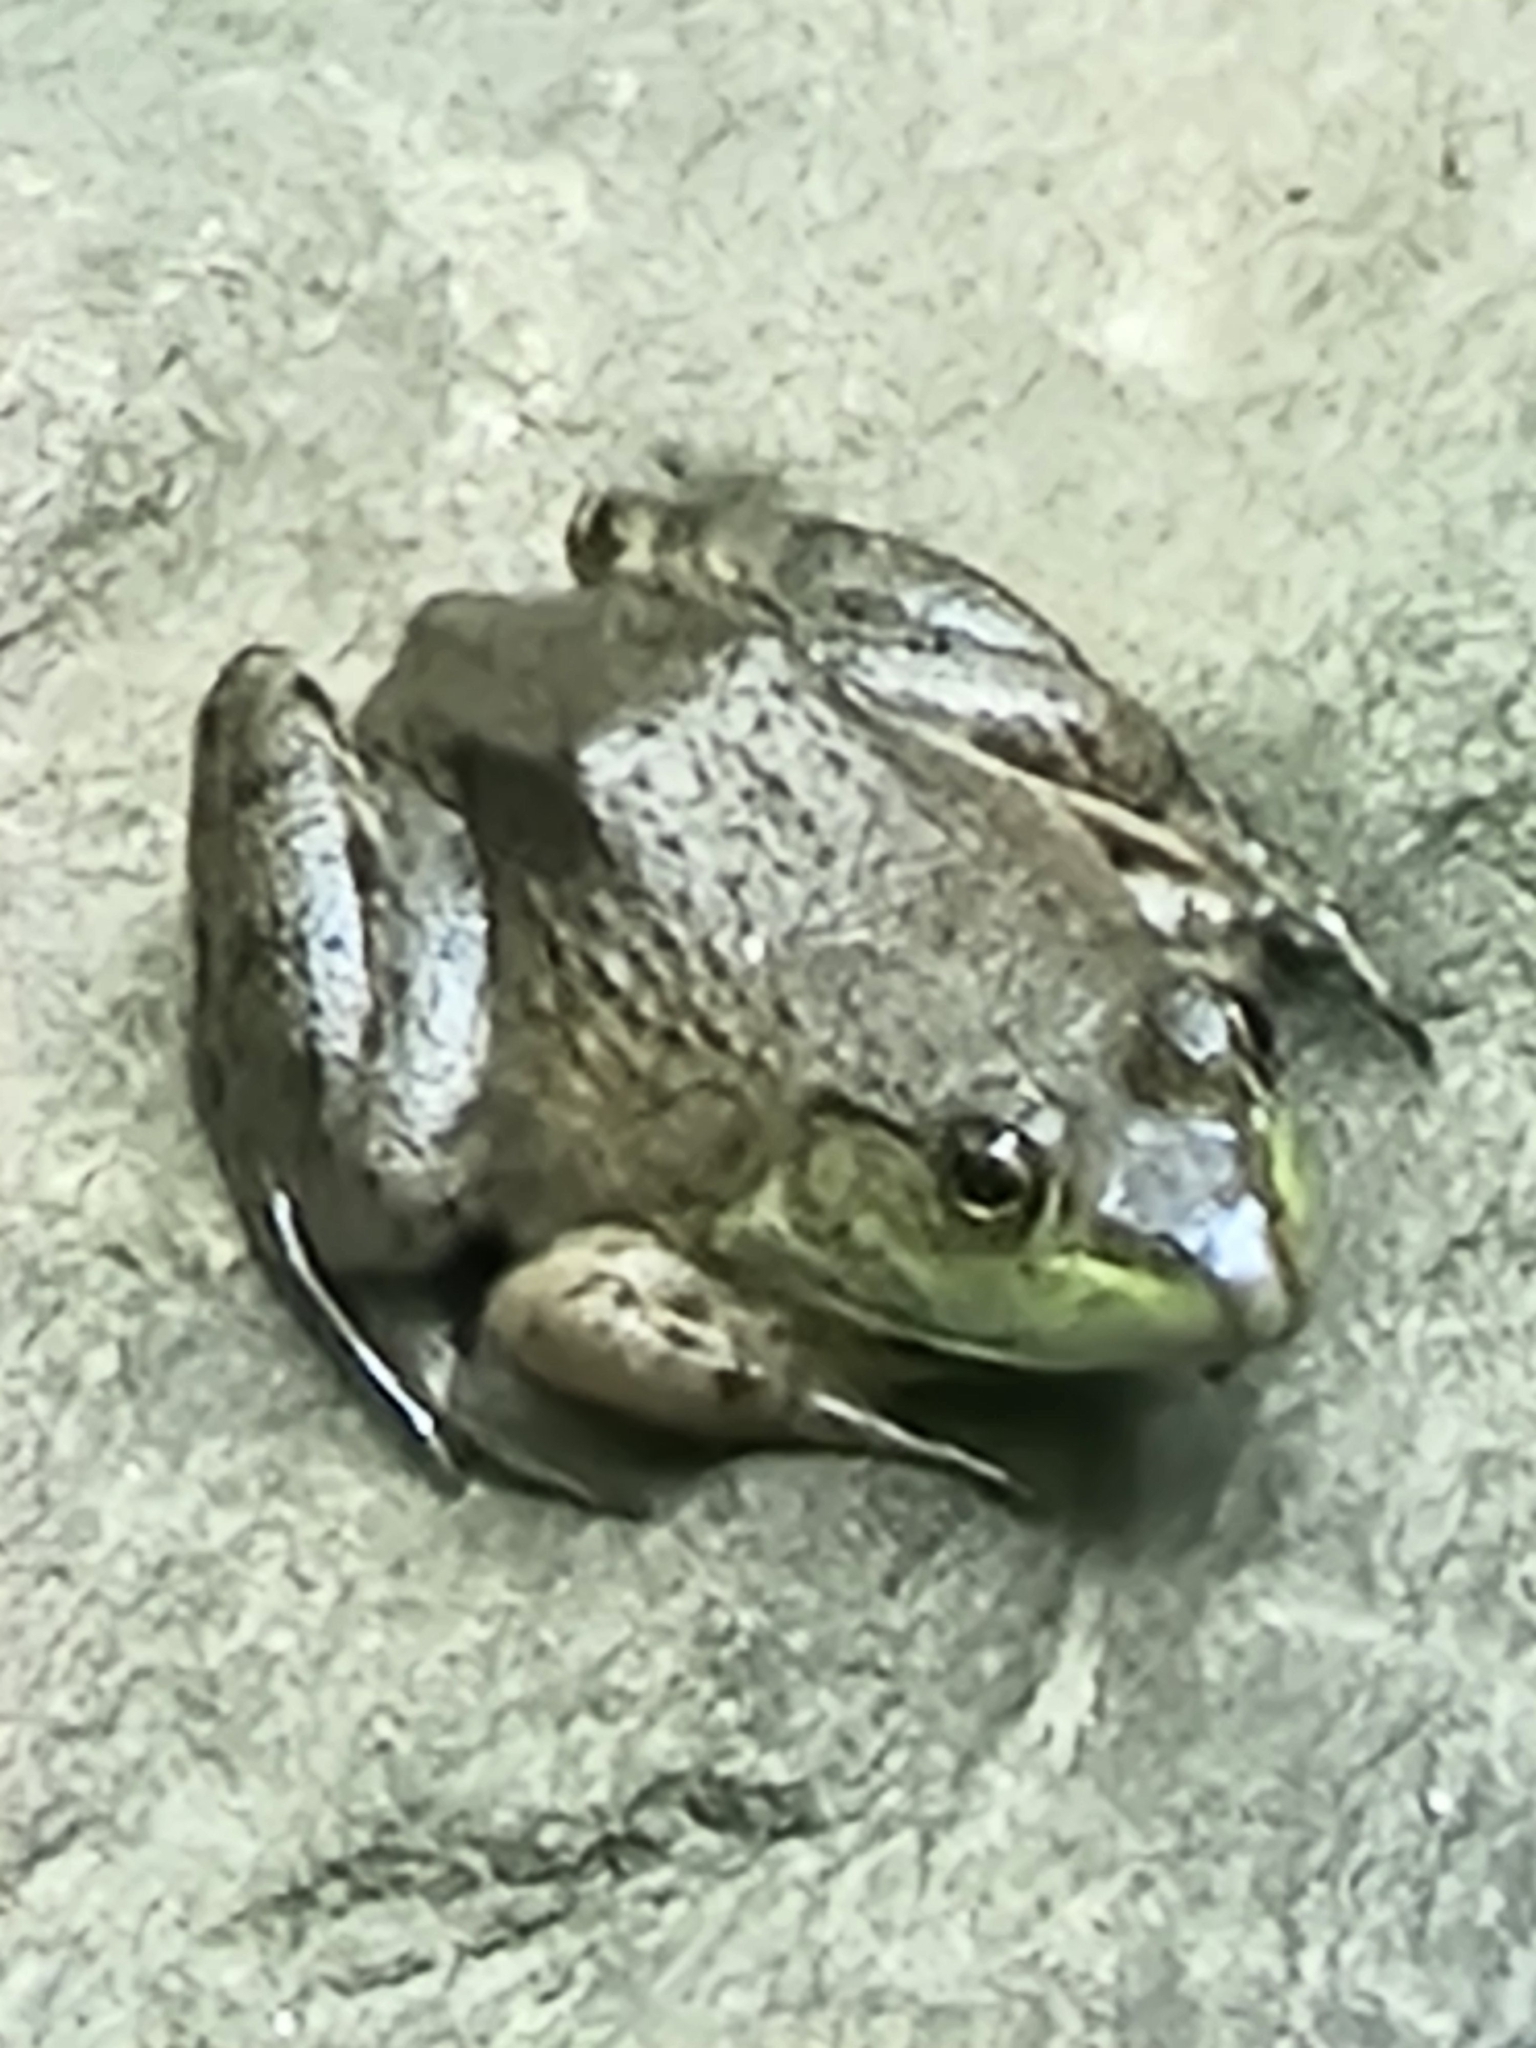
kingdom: Animalia
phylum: Chordata
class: Amphibia
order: Anura
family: Ranidae
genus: Lithobates
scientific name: Lithobates catesbeianus
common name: American bullfrog
